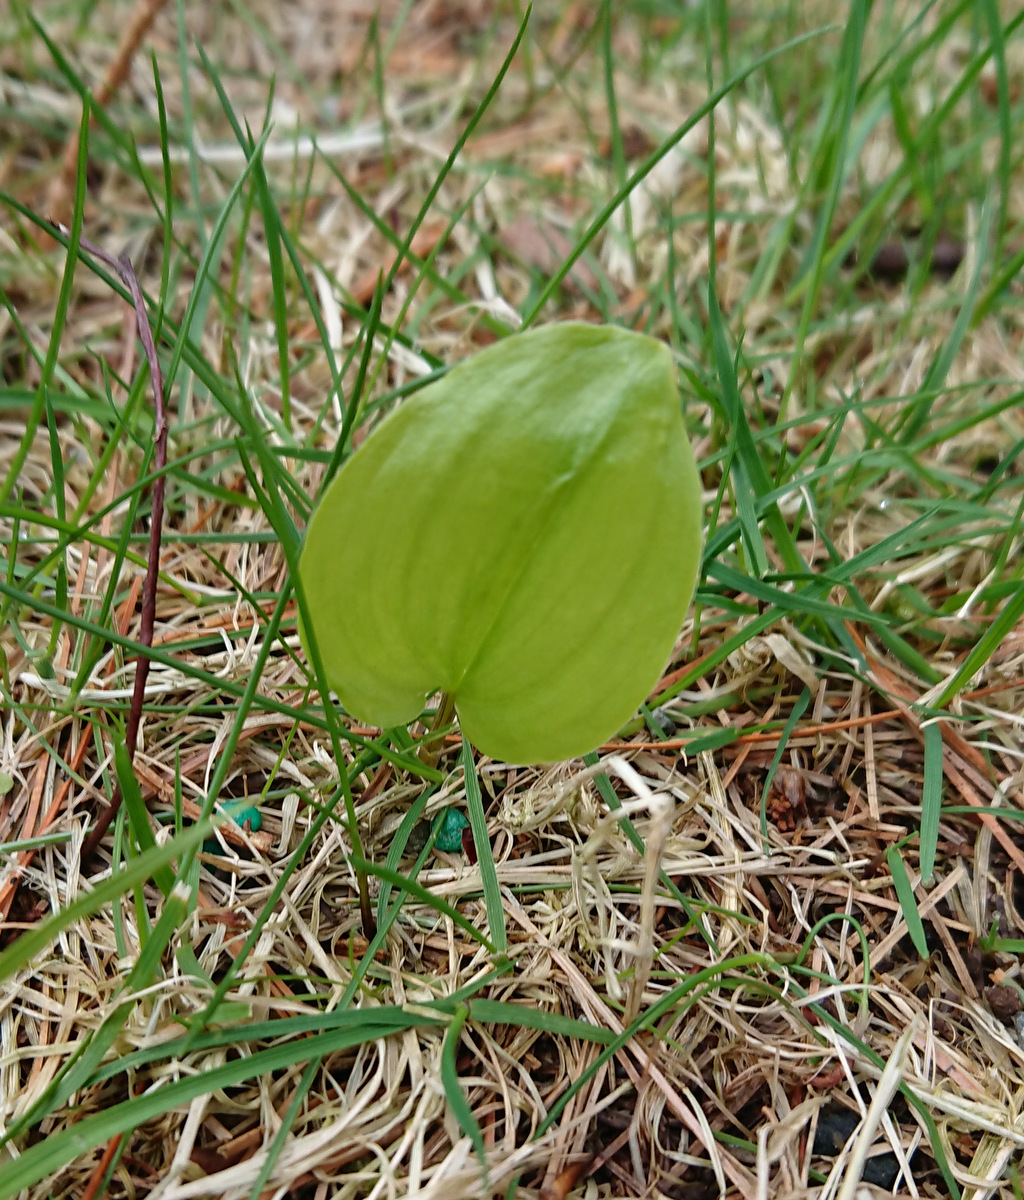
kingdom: Plantae
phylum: Tracheophyta
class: Liliopsida
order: Asparagales
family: Asparagaceae
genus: Maianthemum
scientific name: Maianthemum canadense
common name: False lily-of-the-valley
